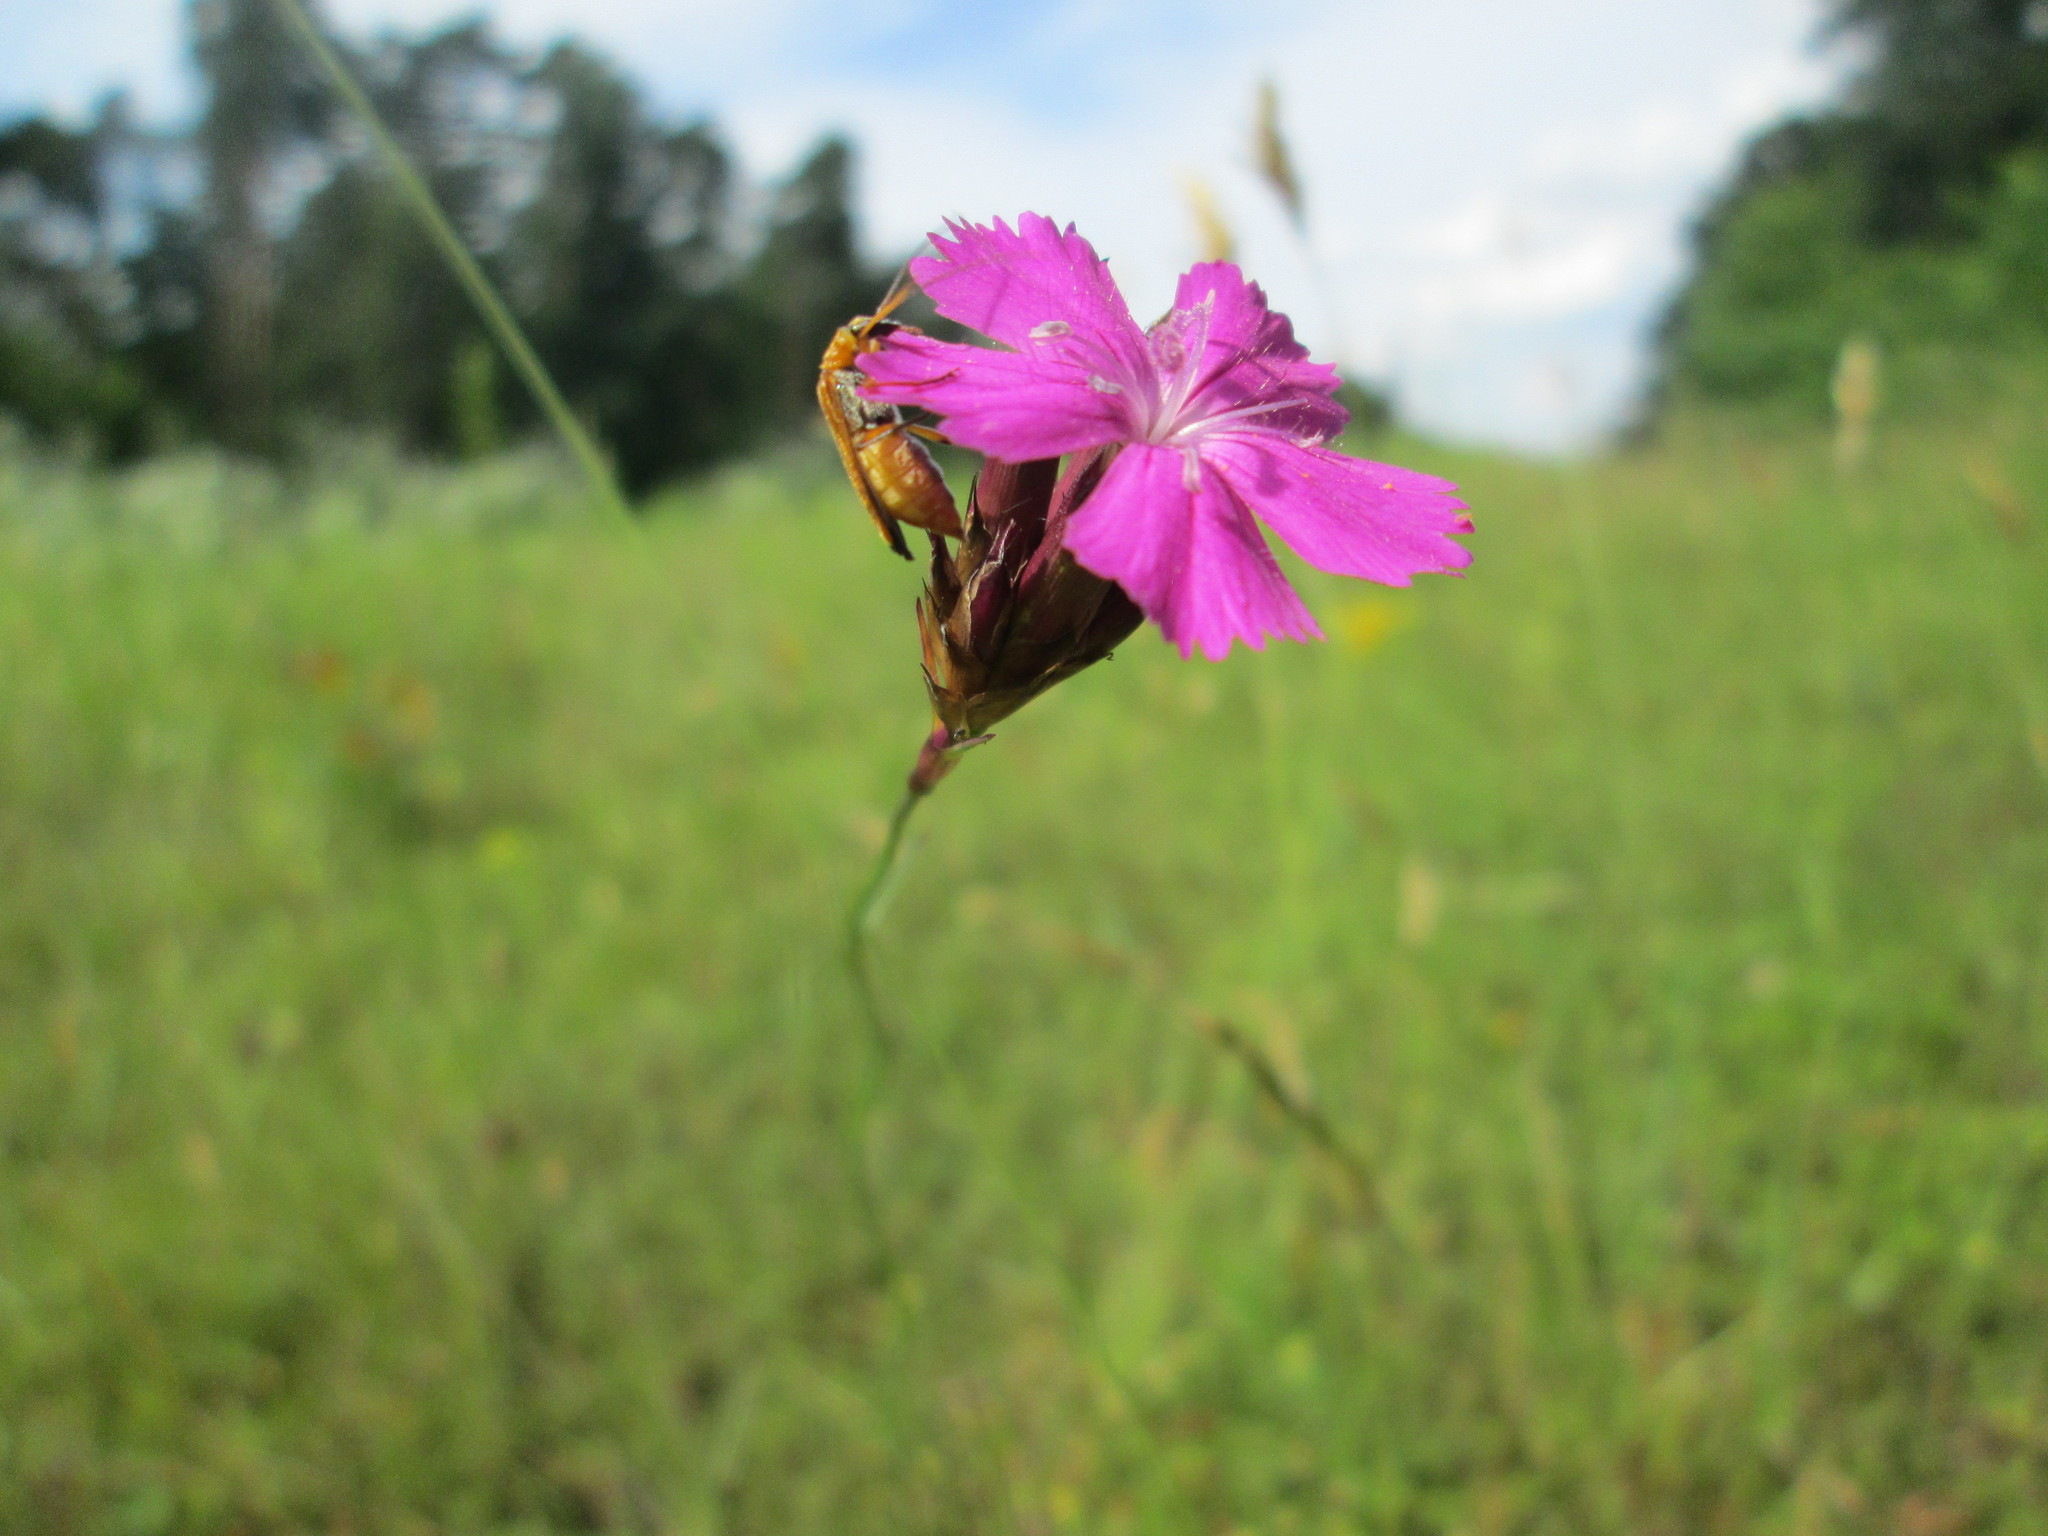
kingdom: Plantae
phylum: Tracheophyta
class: Magnoliopsida
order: Caryophyllales
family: Caryophyllaceae
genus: Dianthus
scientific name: Dianthus carthusianorum
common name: Carthusian pink
